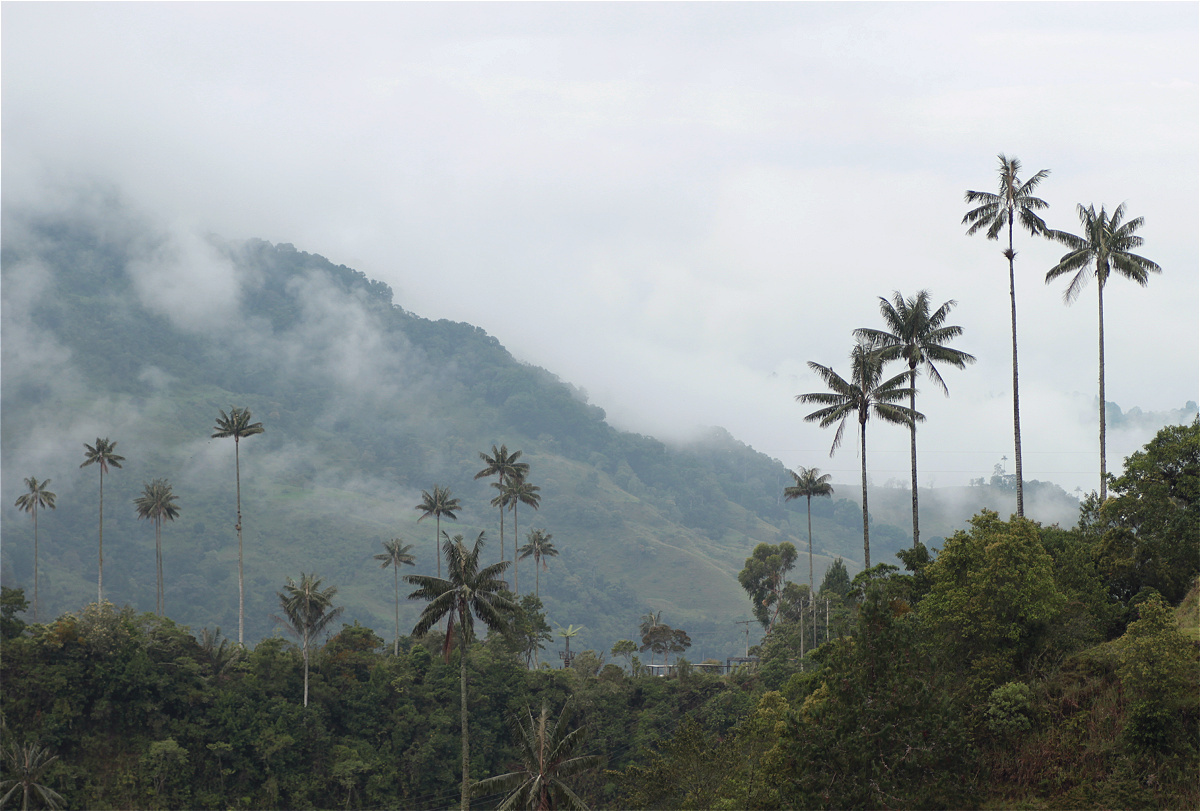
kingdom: Plantae
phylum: Tracheophyta
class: Liliopsida
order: Arecales
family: Arecaceae
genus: Ceroxylon
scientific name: Ceroxylon quindiuense
